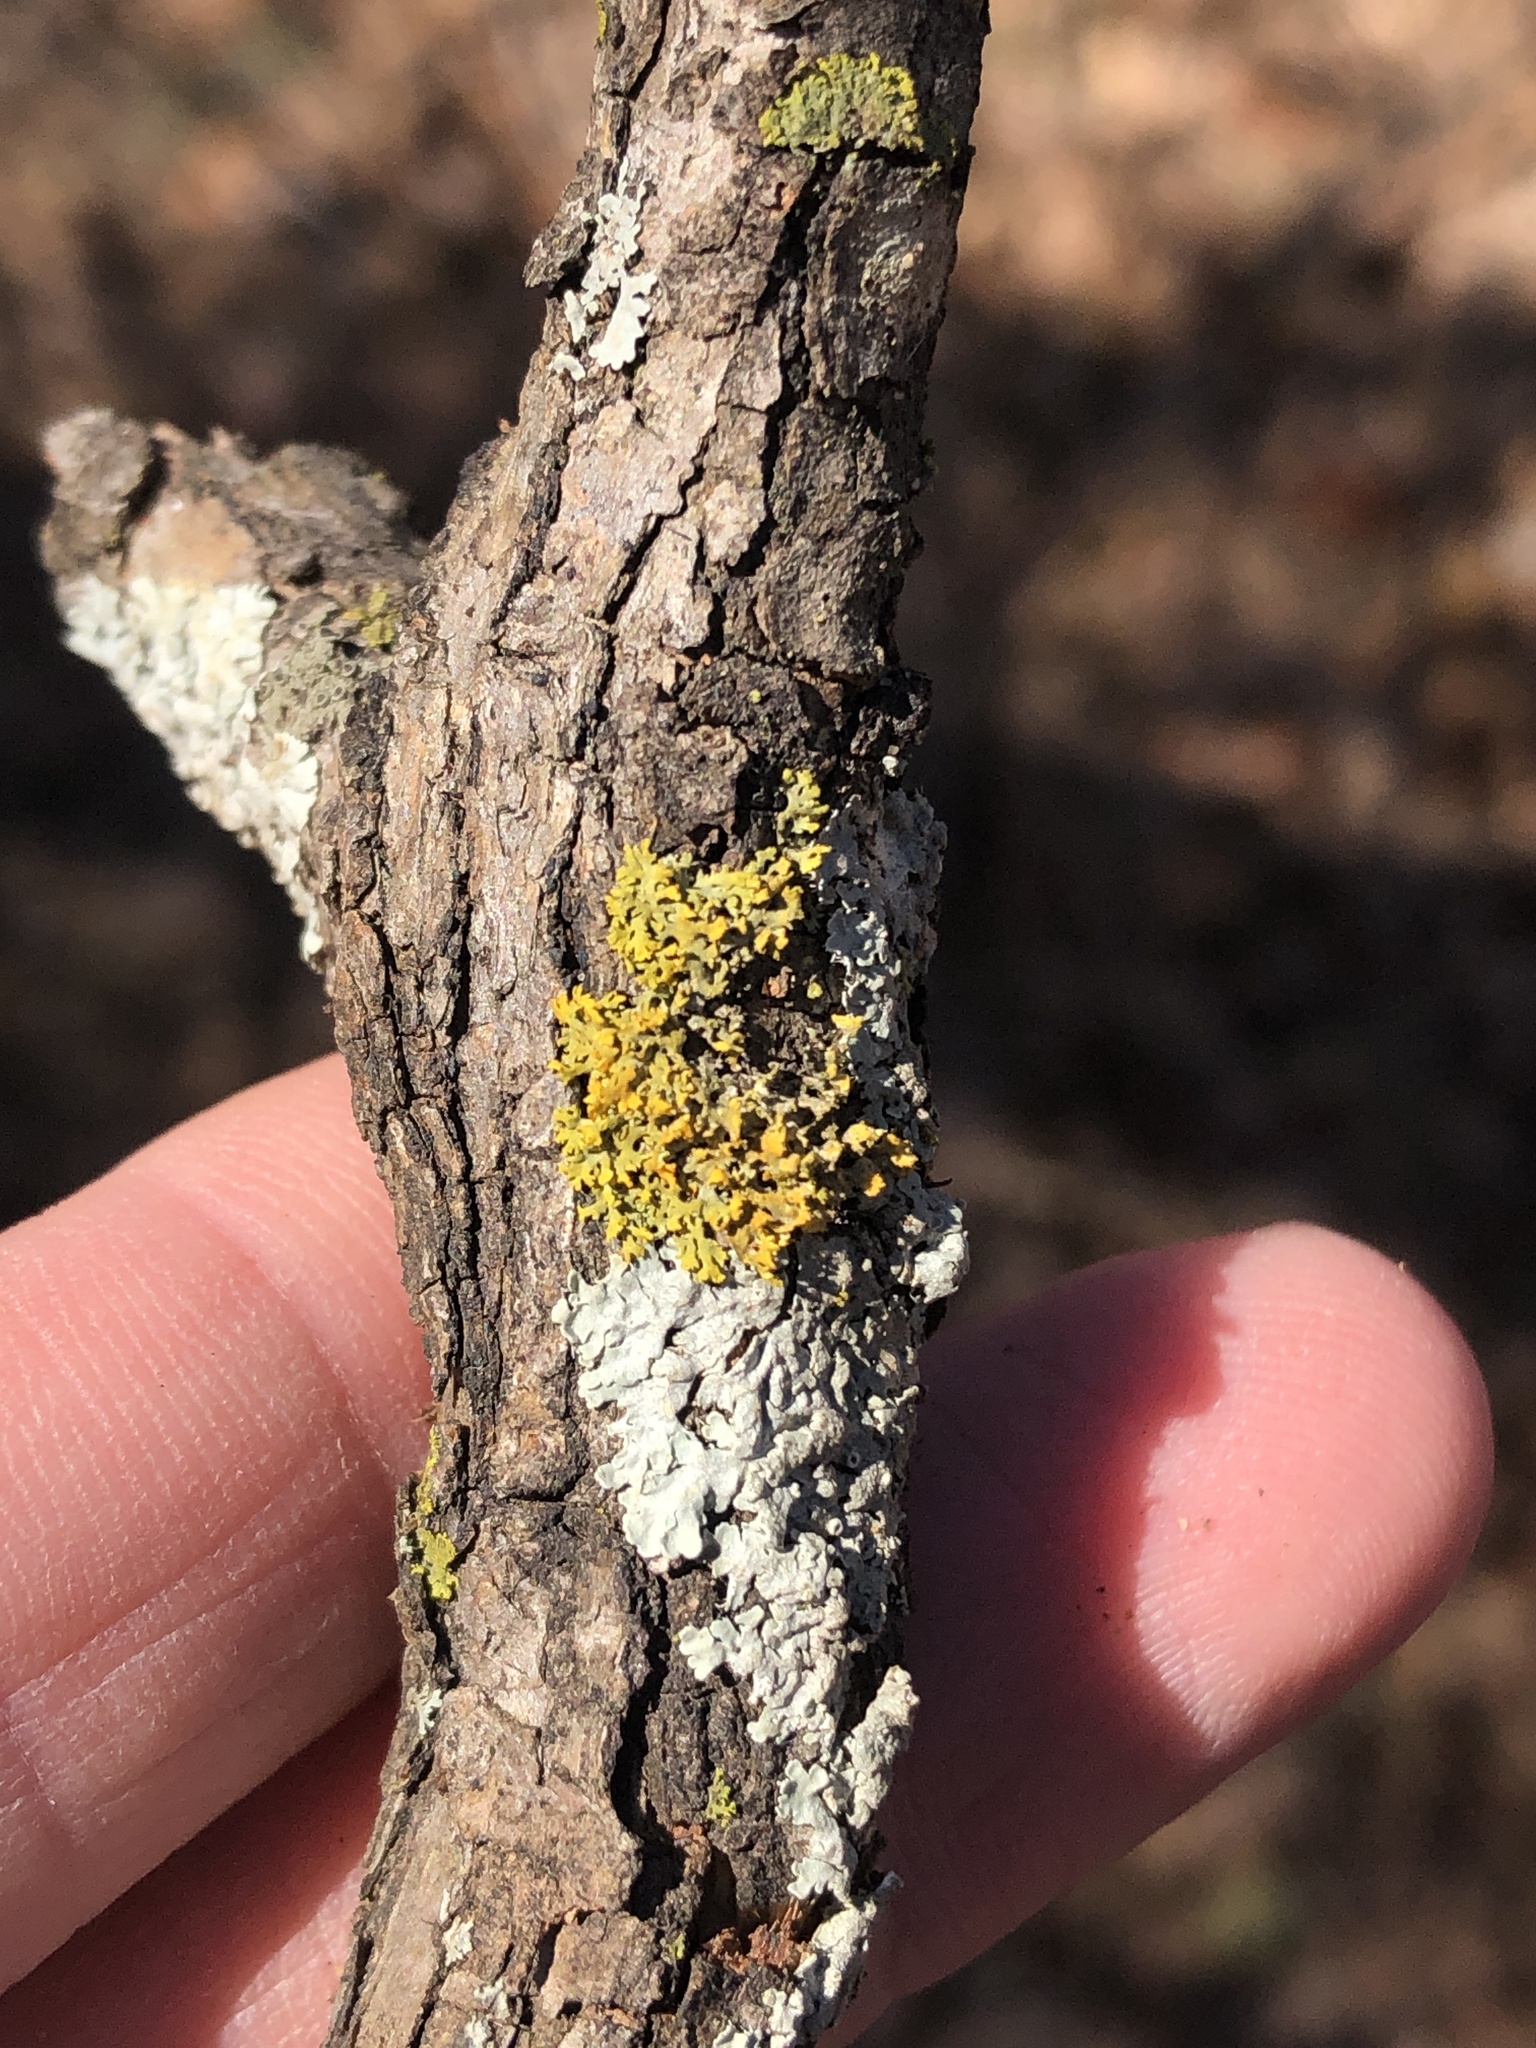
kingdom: Fungi
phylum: Ascomycota
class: Lecanoromycetes
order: Teloschistales
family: Teloschistaceae
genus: Gallowayella
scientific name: Gallowayella weberi
